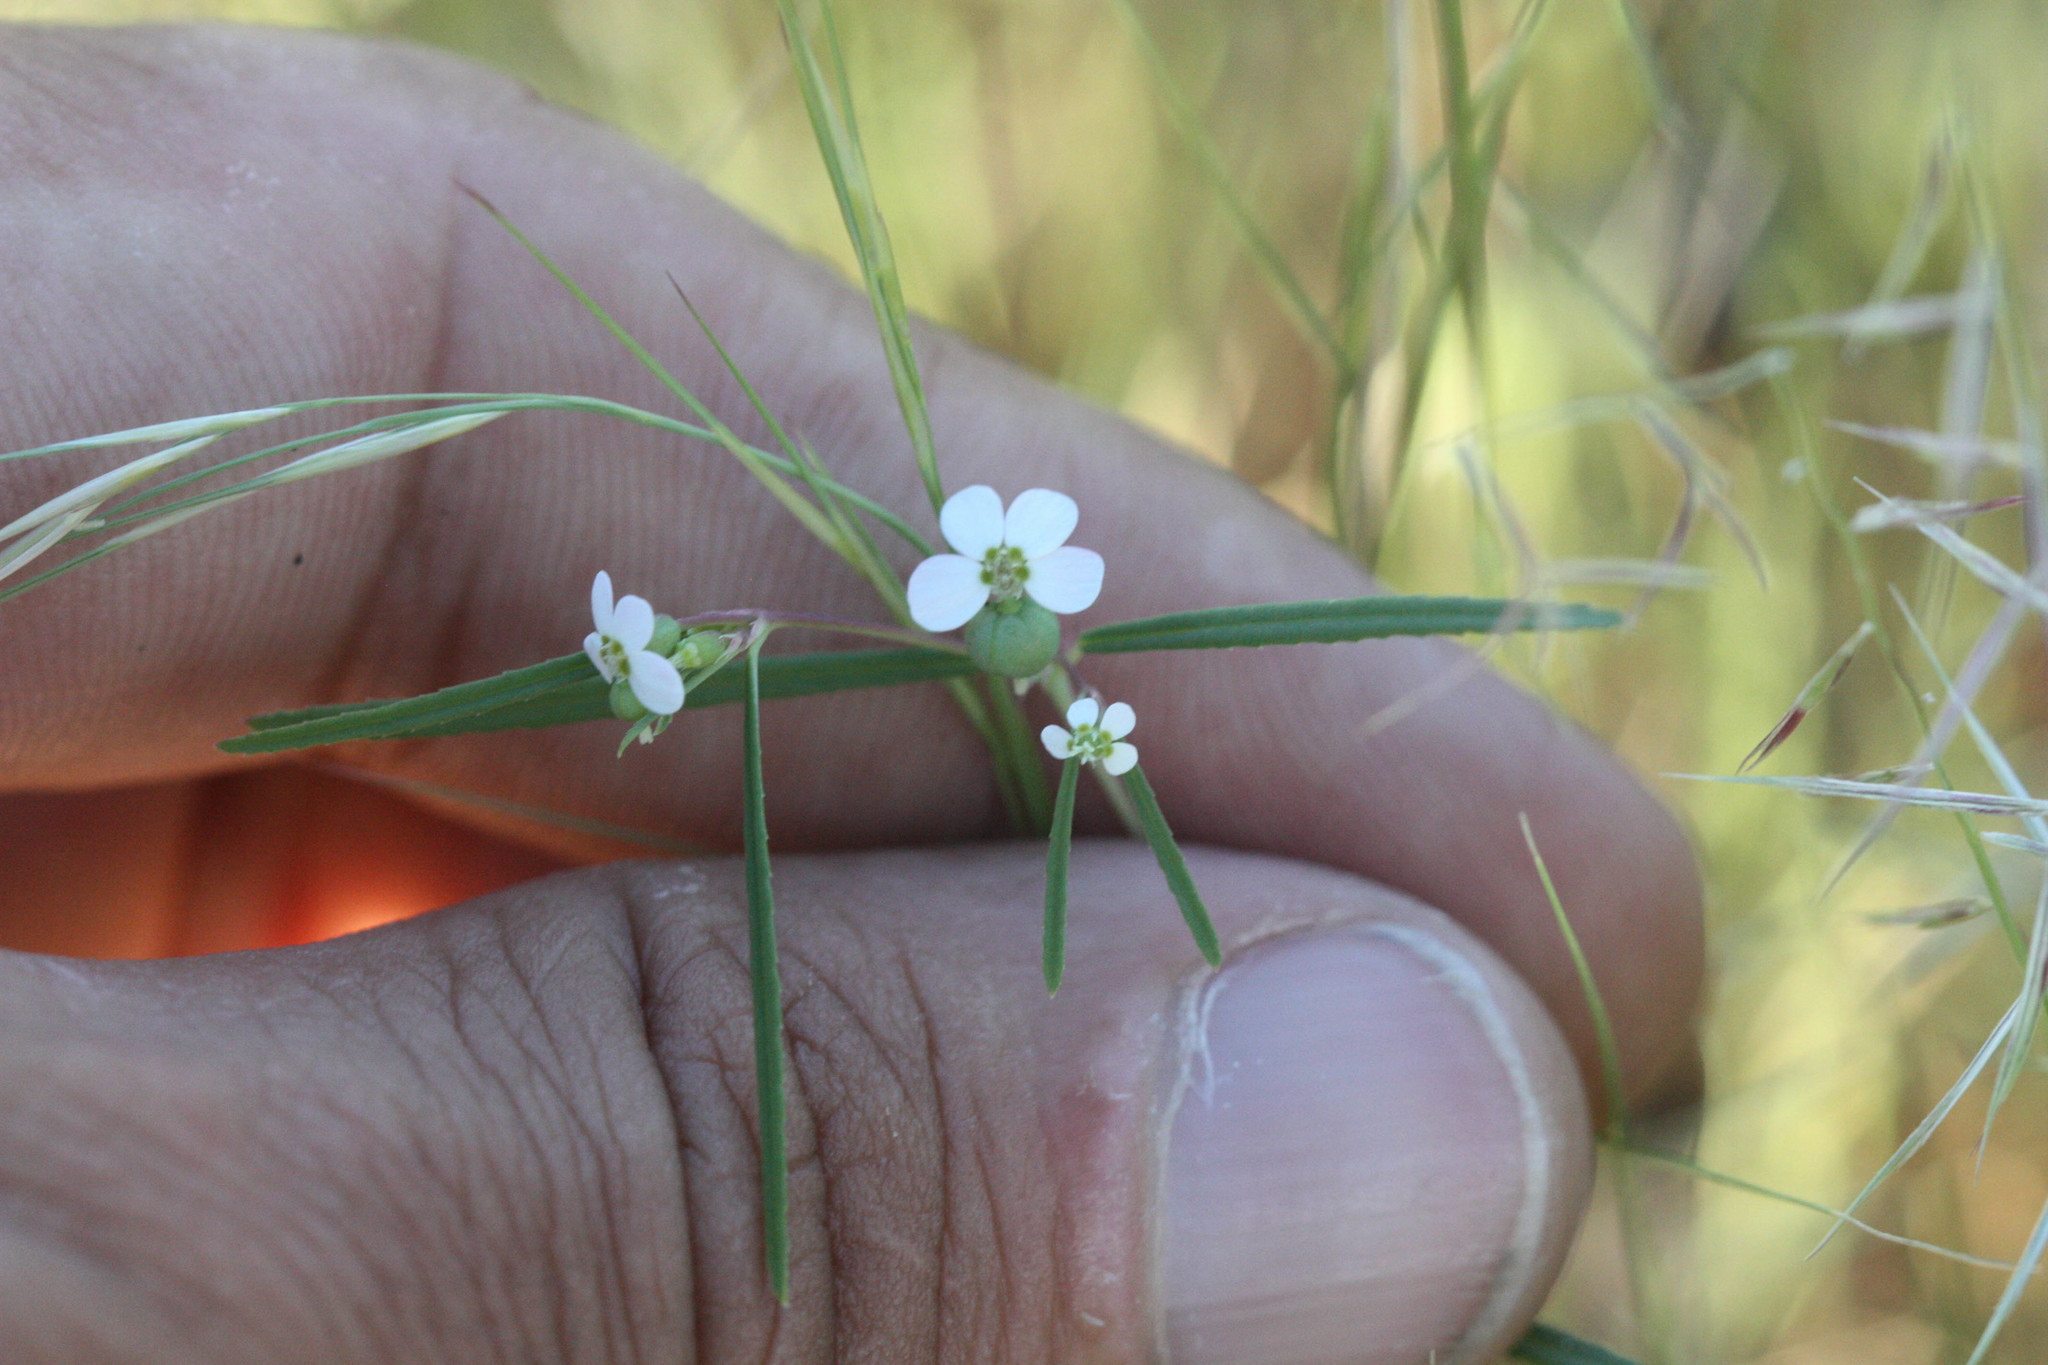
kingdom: Plantae
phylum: Tracheophyta
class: Magnoliopsida
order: Malpighiales
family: Euphorbiaceae
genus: Euphorbia
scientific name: Euphorbia florida
